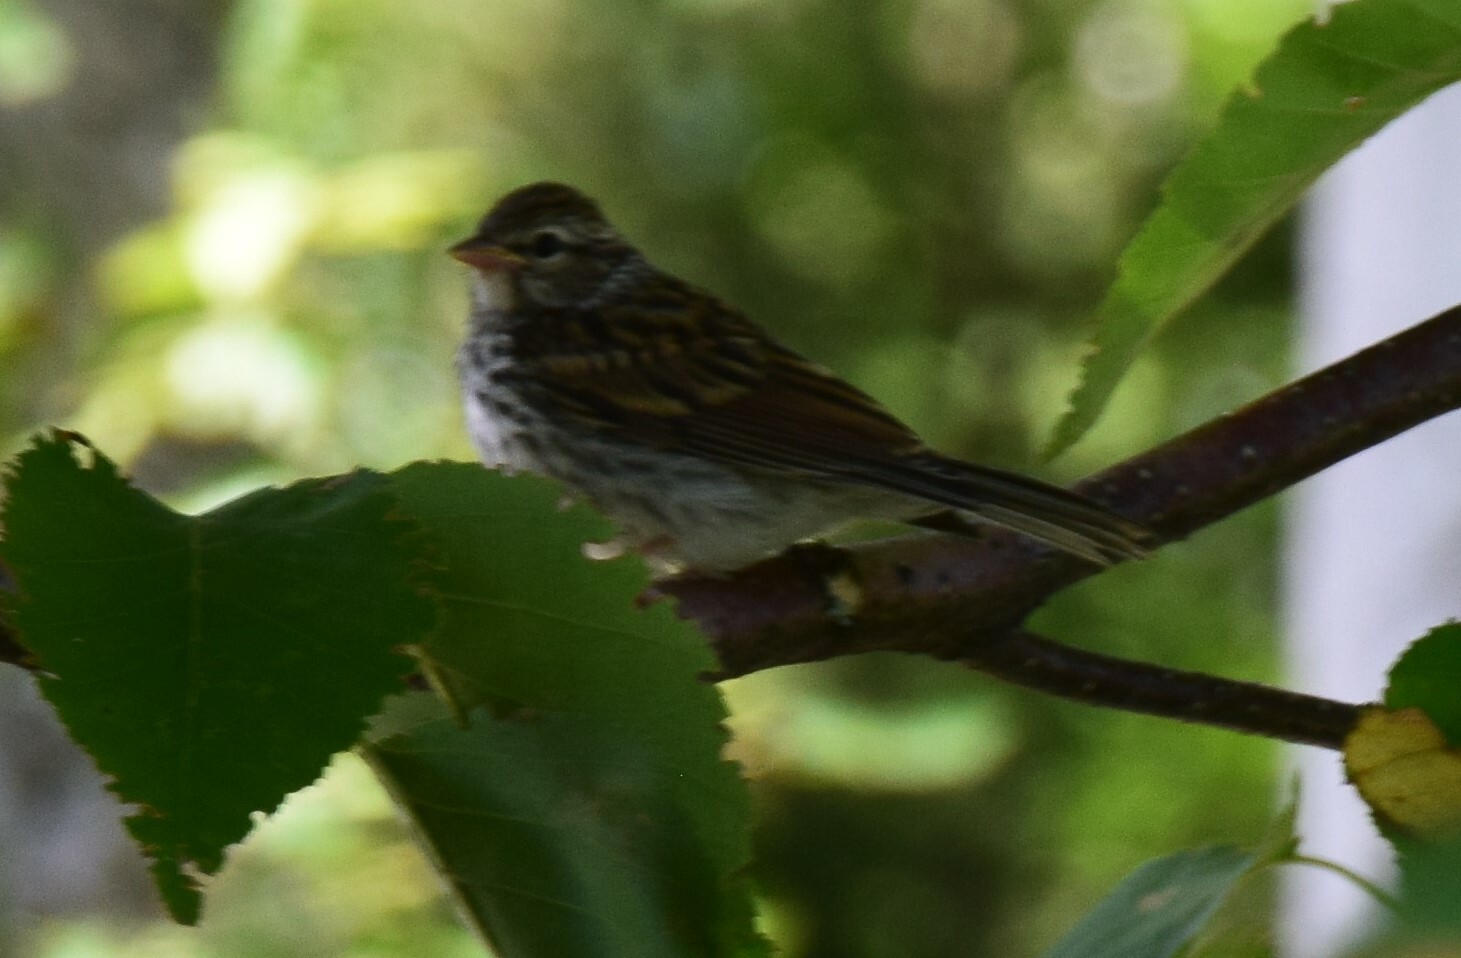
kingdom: Animalia
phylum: Chordata
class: Aves
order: Passeriformes
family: Passerellidae
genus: Spizella
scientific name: Spizella passerina
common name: Chipping sparrow
